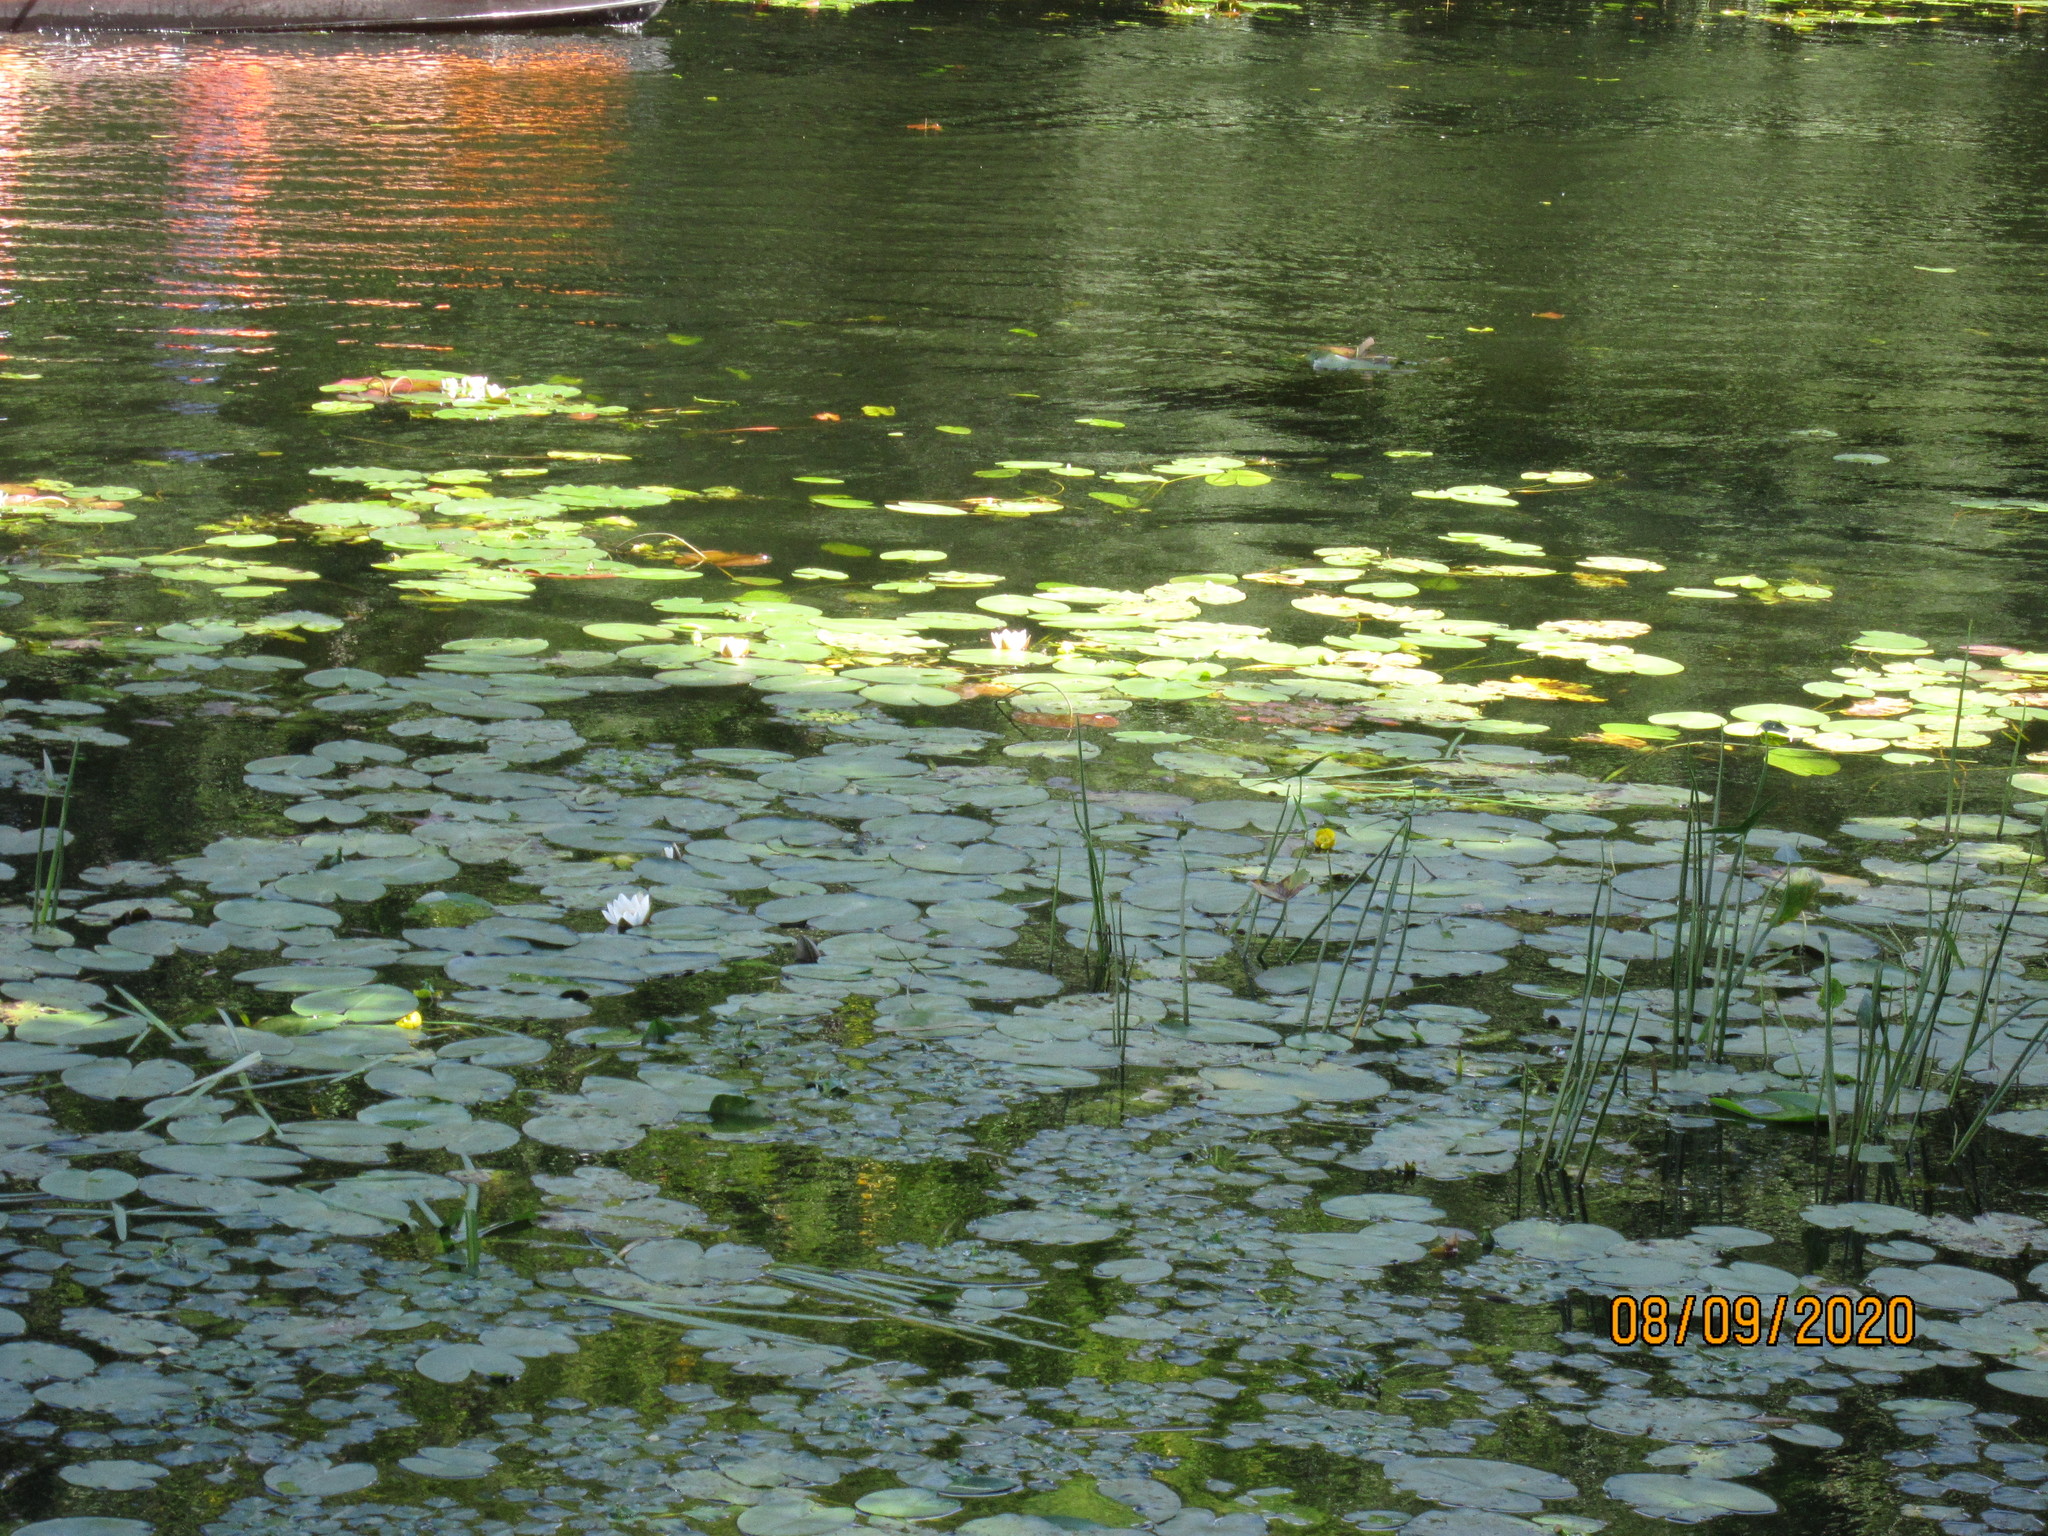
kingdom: Plantae
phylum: Tracheophyta
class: Magnoliopsida
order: Nymphaeales
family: Nymphaeaceae
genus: Nymphaea
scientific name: Nymphaea candida
